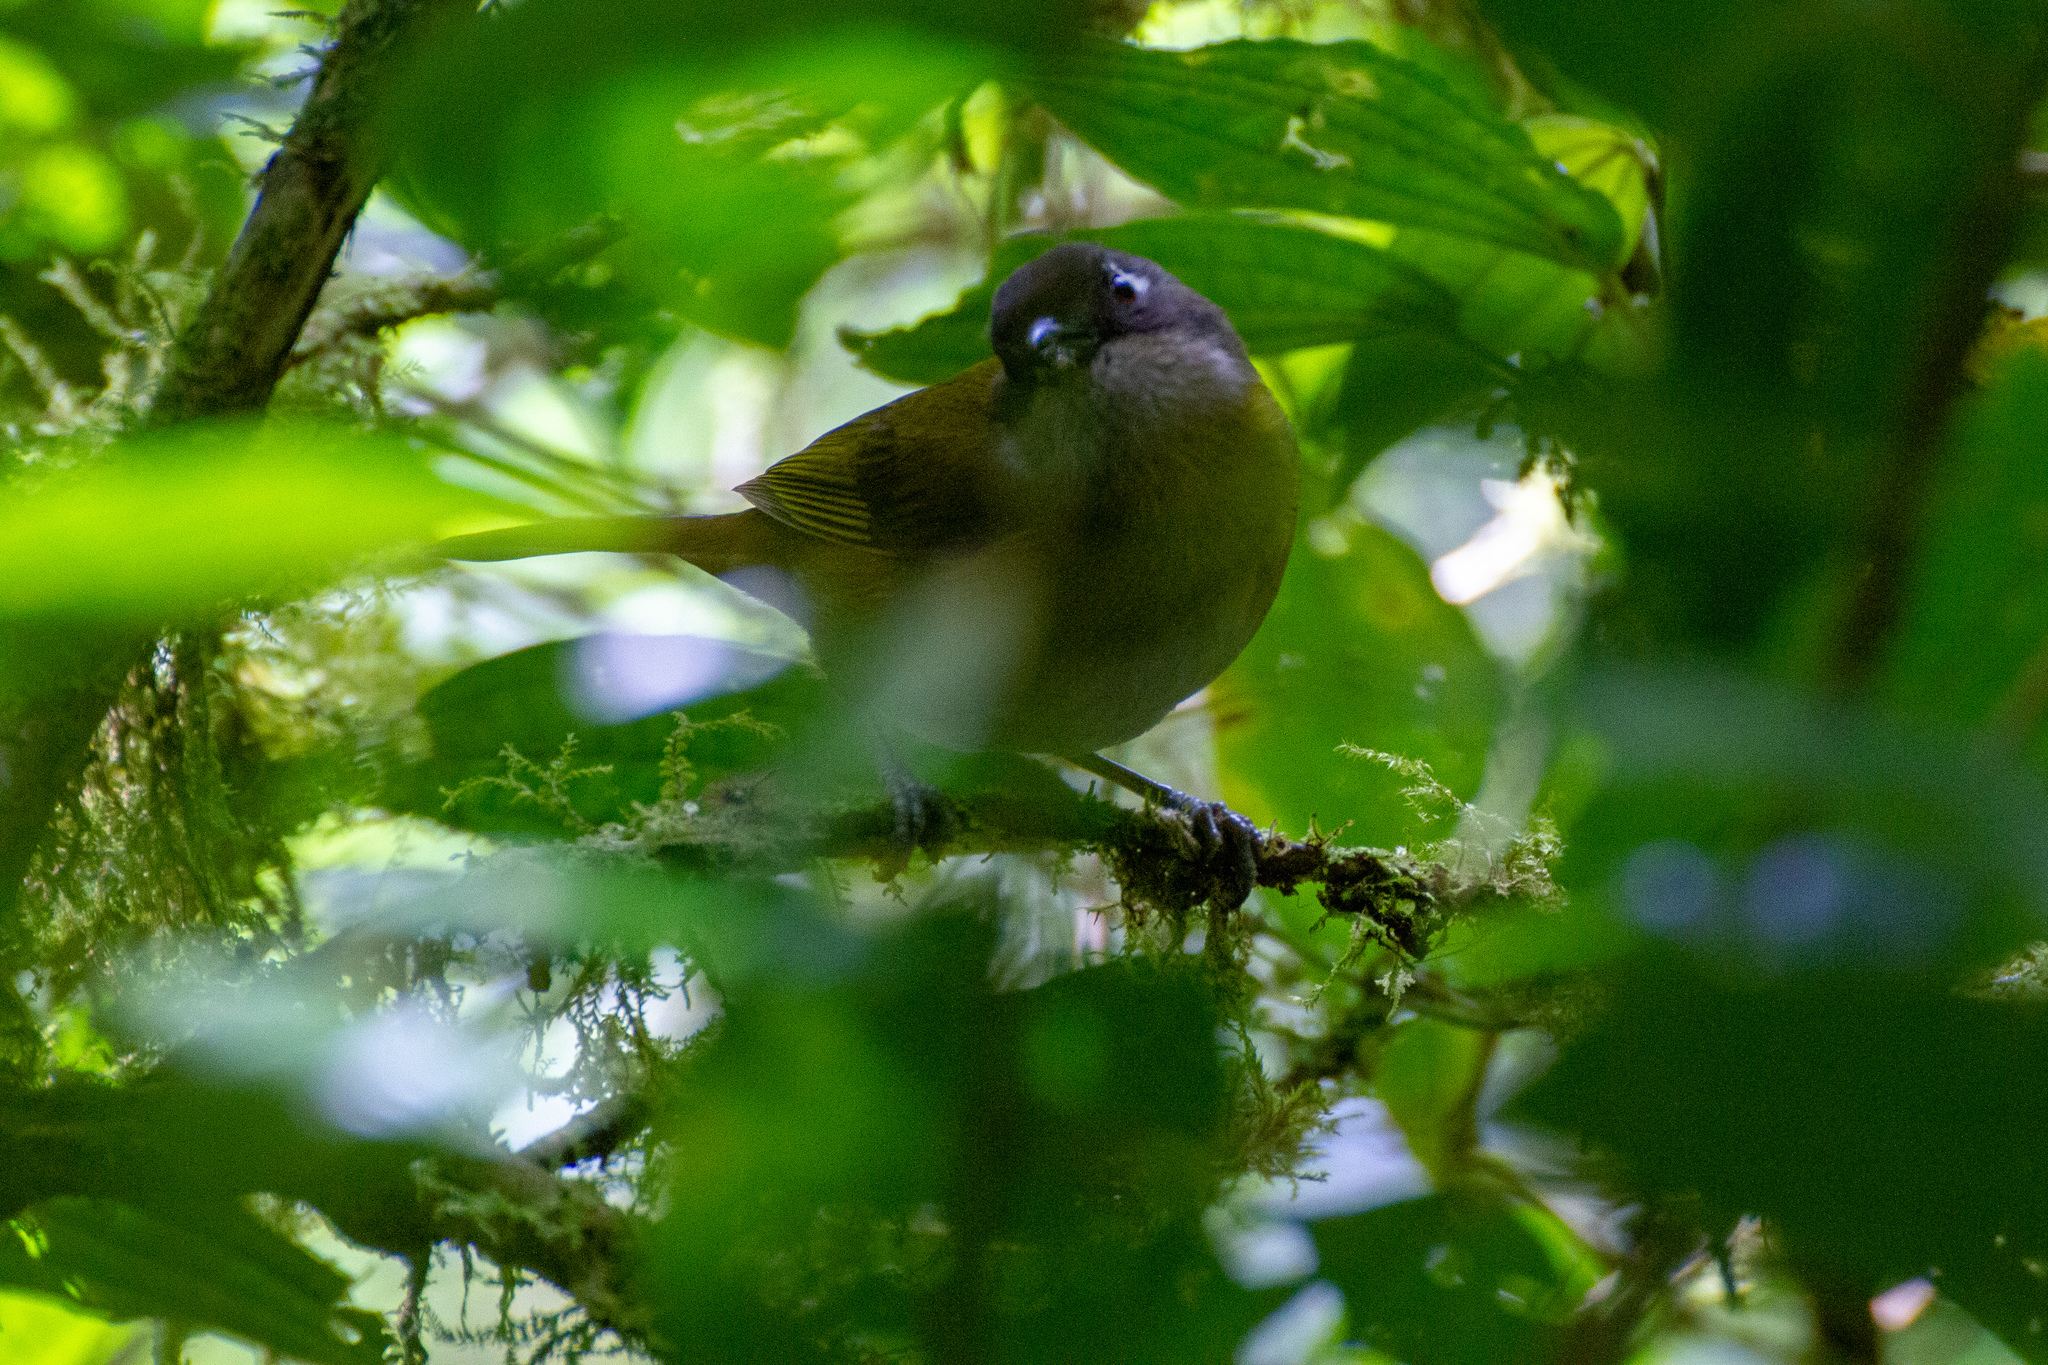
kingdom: Animalia
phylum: Chordata
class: Aves
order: Passeriformes
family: Passerellidae
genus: Chlorospingus
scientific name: Chlorospingus flavopectus
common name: Common chlorospingus
